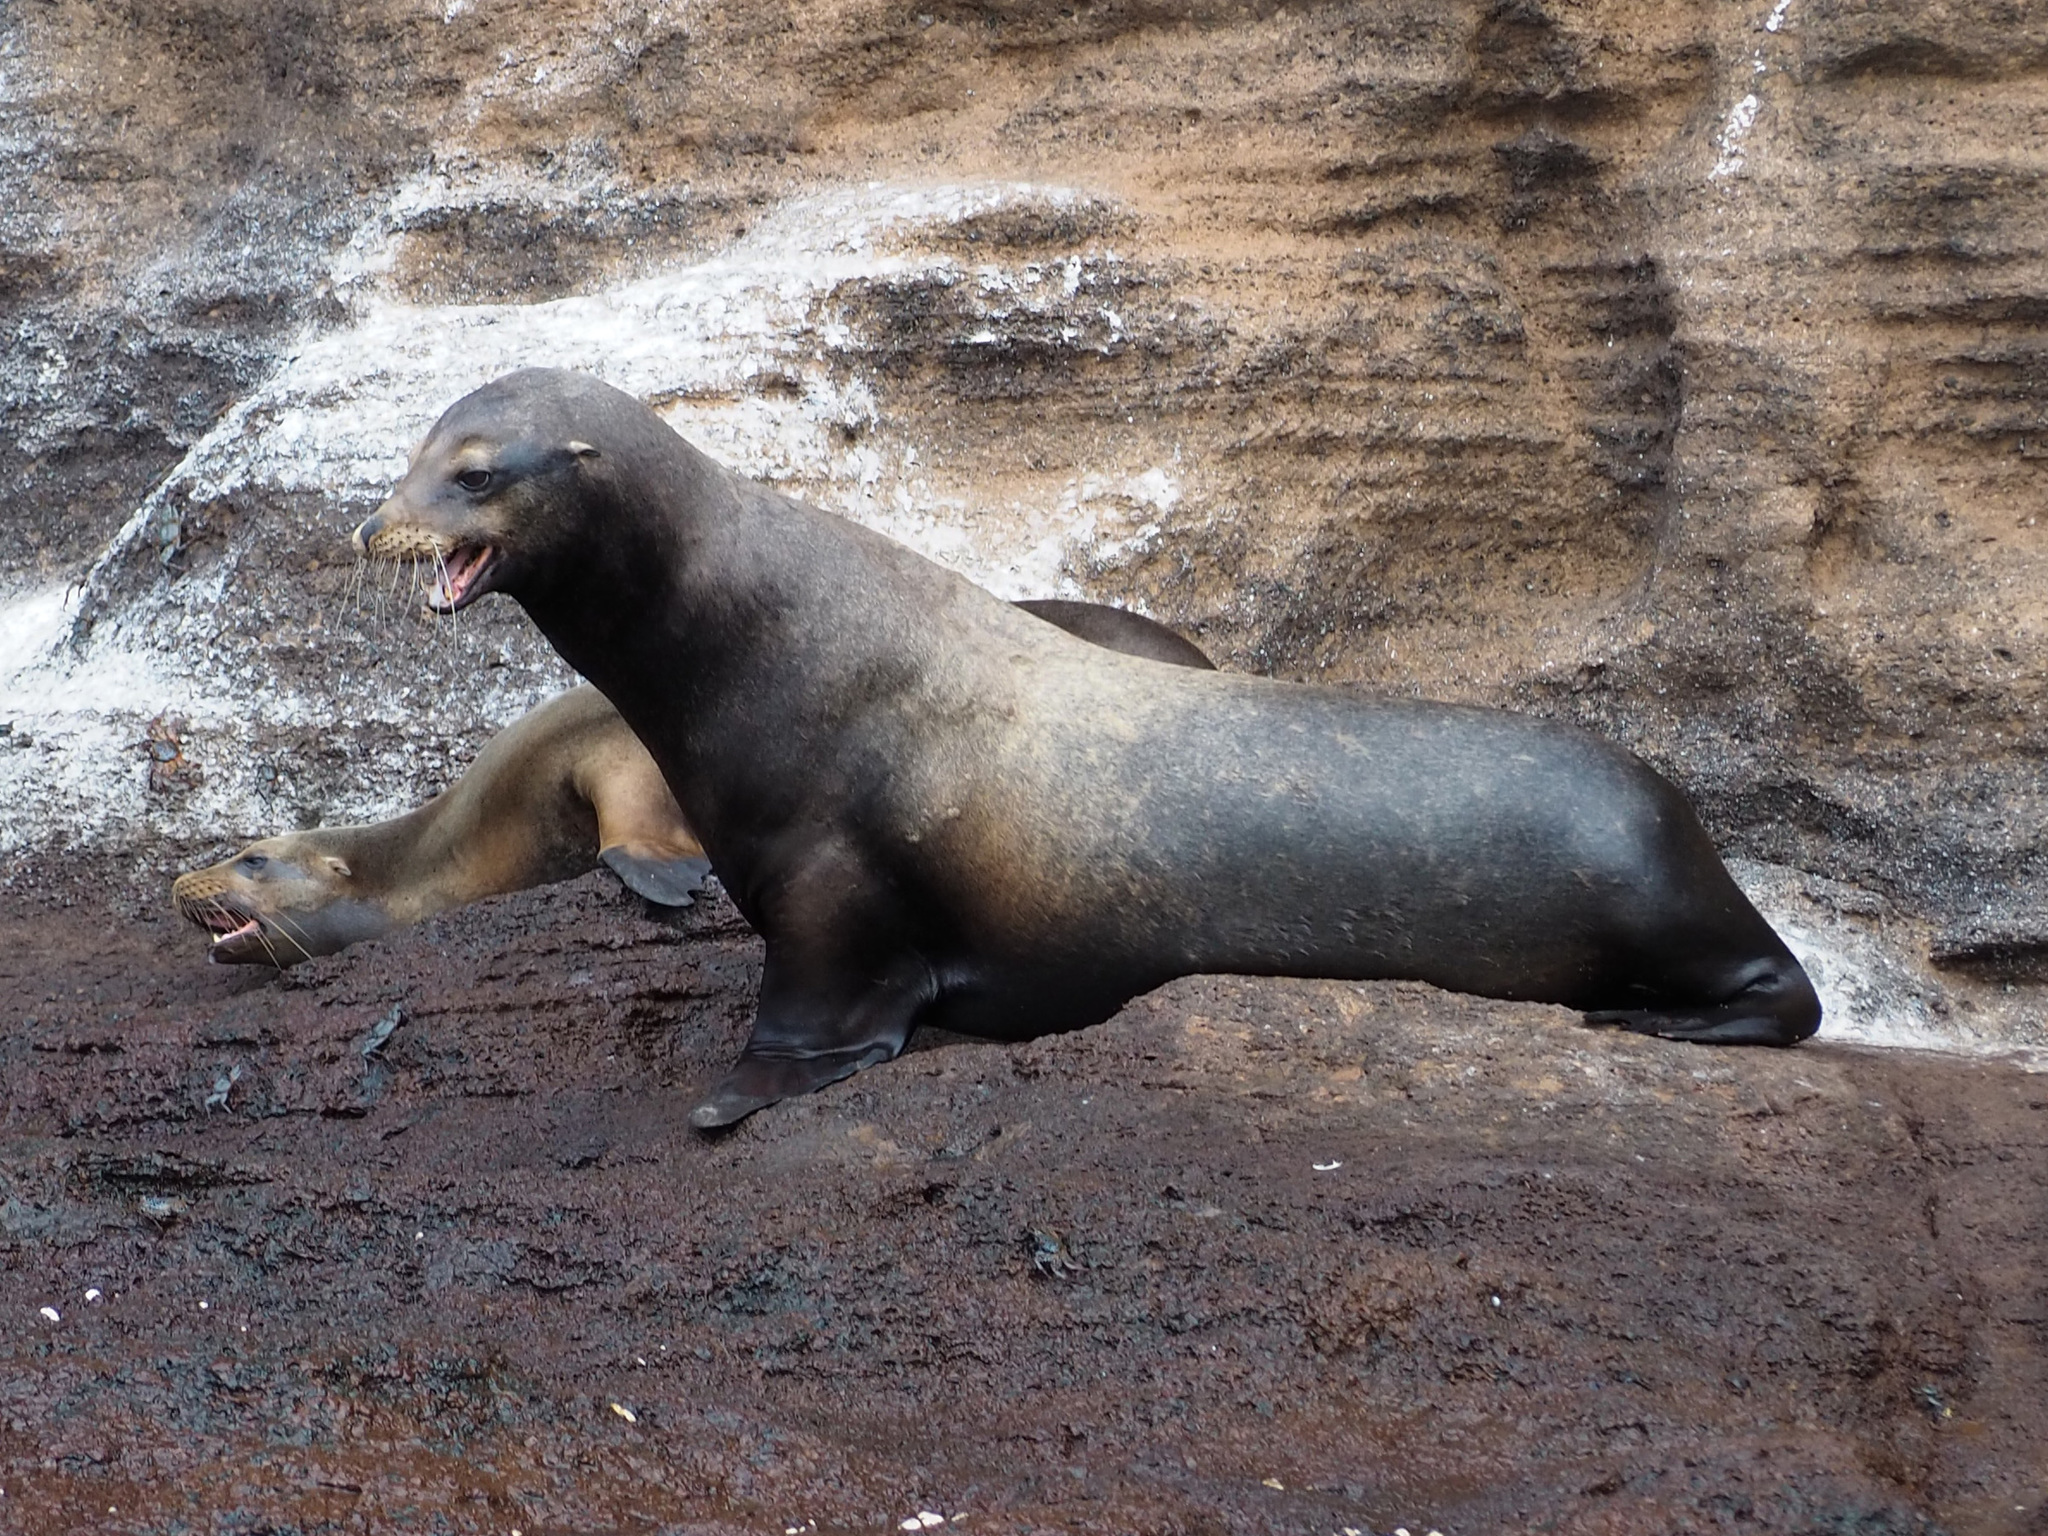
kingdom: Animalia
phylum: Chordata
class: Mammalia
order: Carnivora
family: Otariidae
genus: Zalophus
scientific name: Zalophus wollebaeki
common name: Galapagos sea lion
